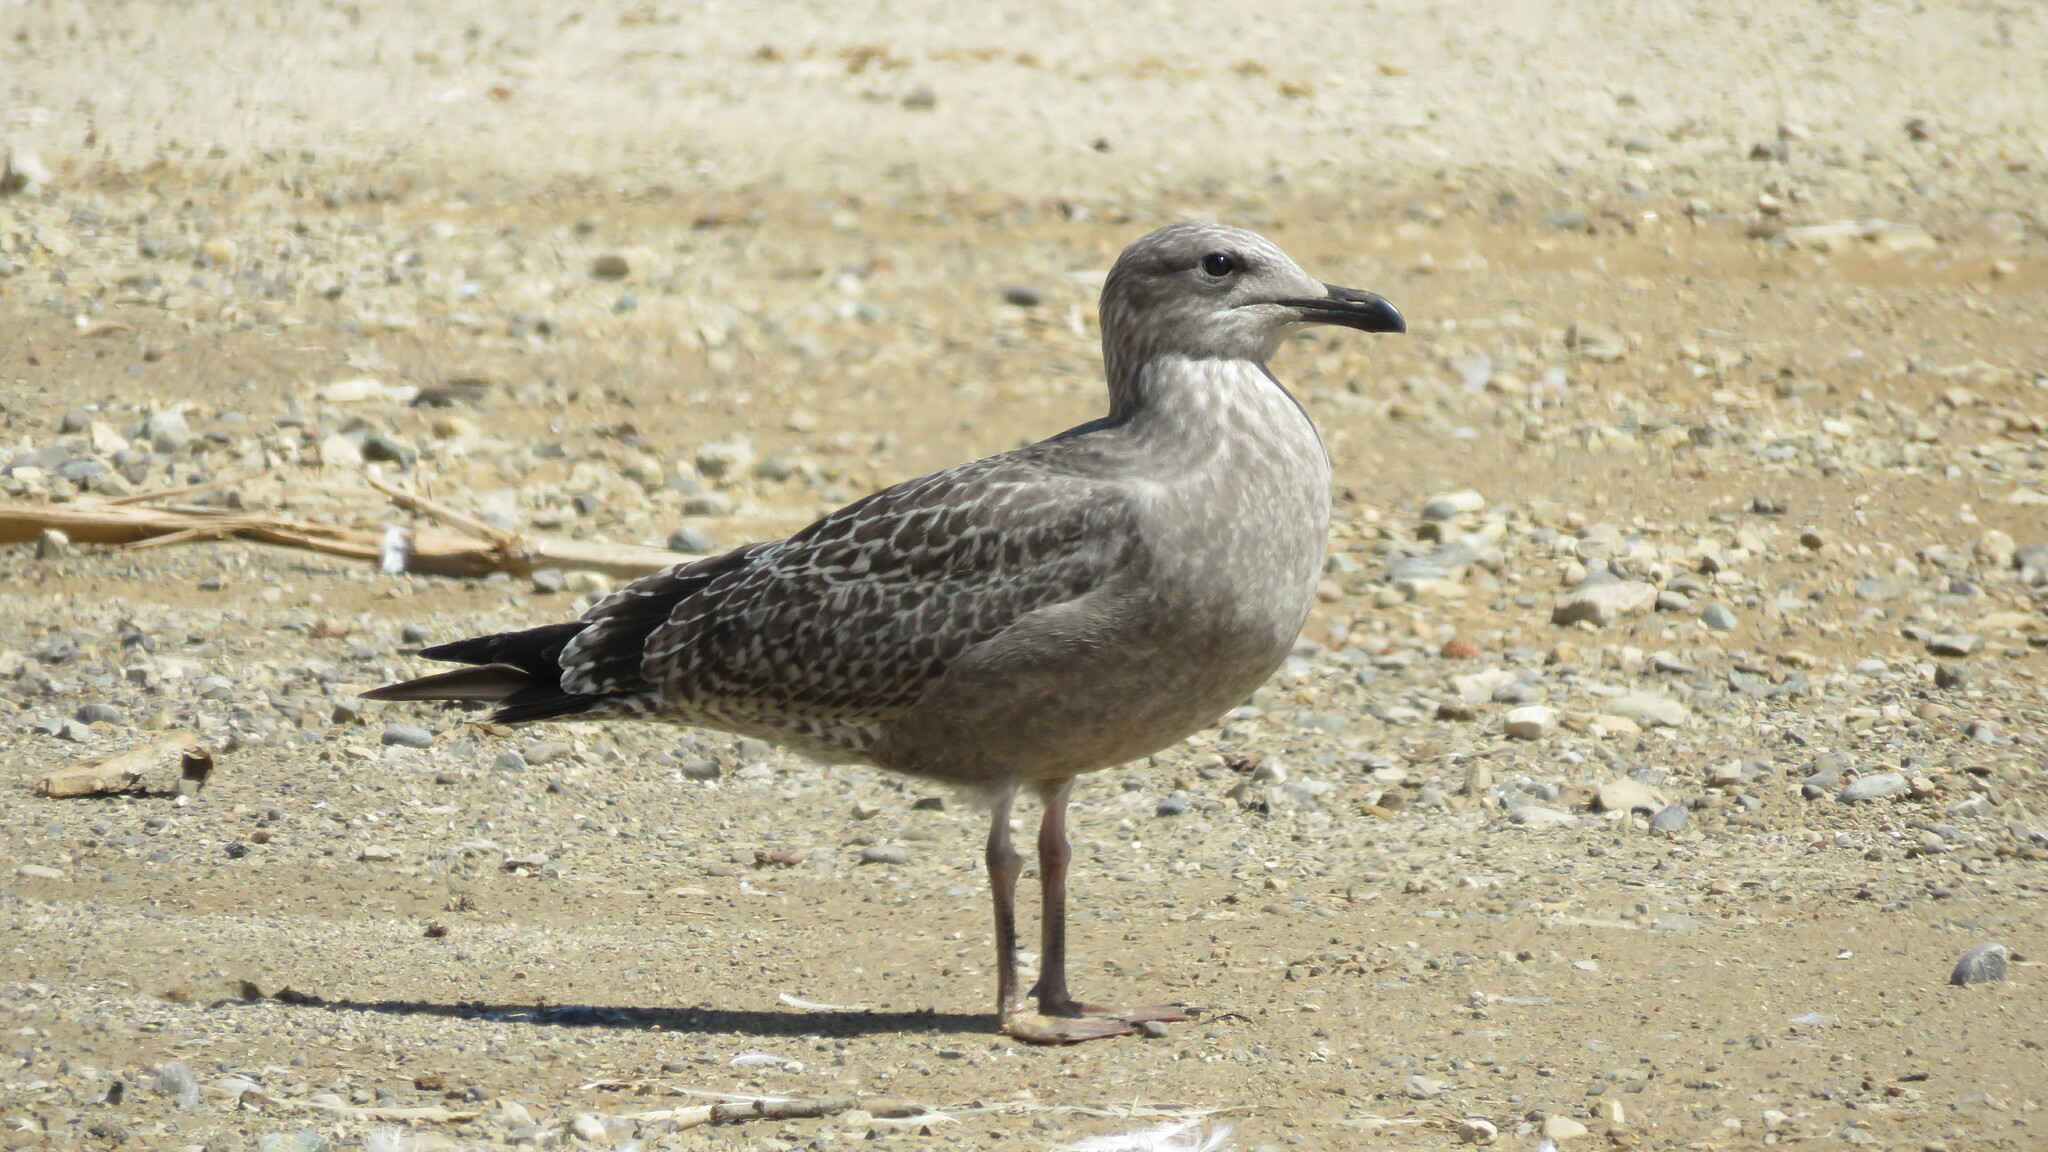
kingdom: Animalia
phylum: Chordata
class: Aves
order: Charadriiformes
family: Laridae
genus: Larus
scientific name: Larus argentatus
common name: Herring gull
